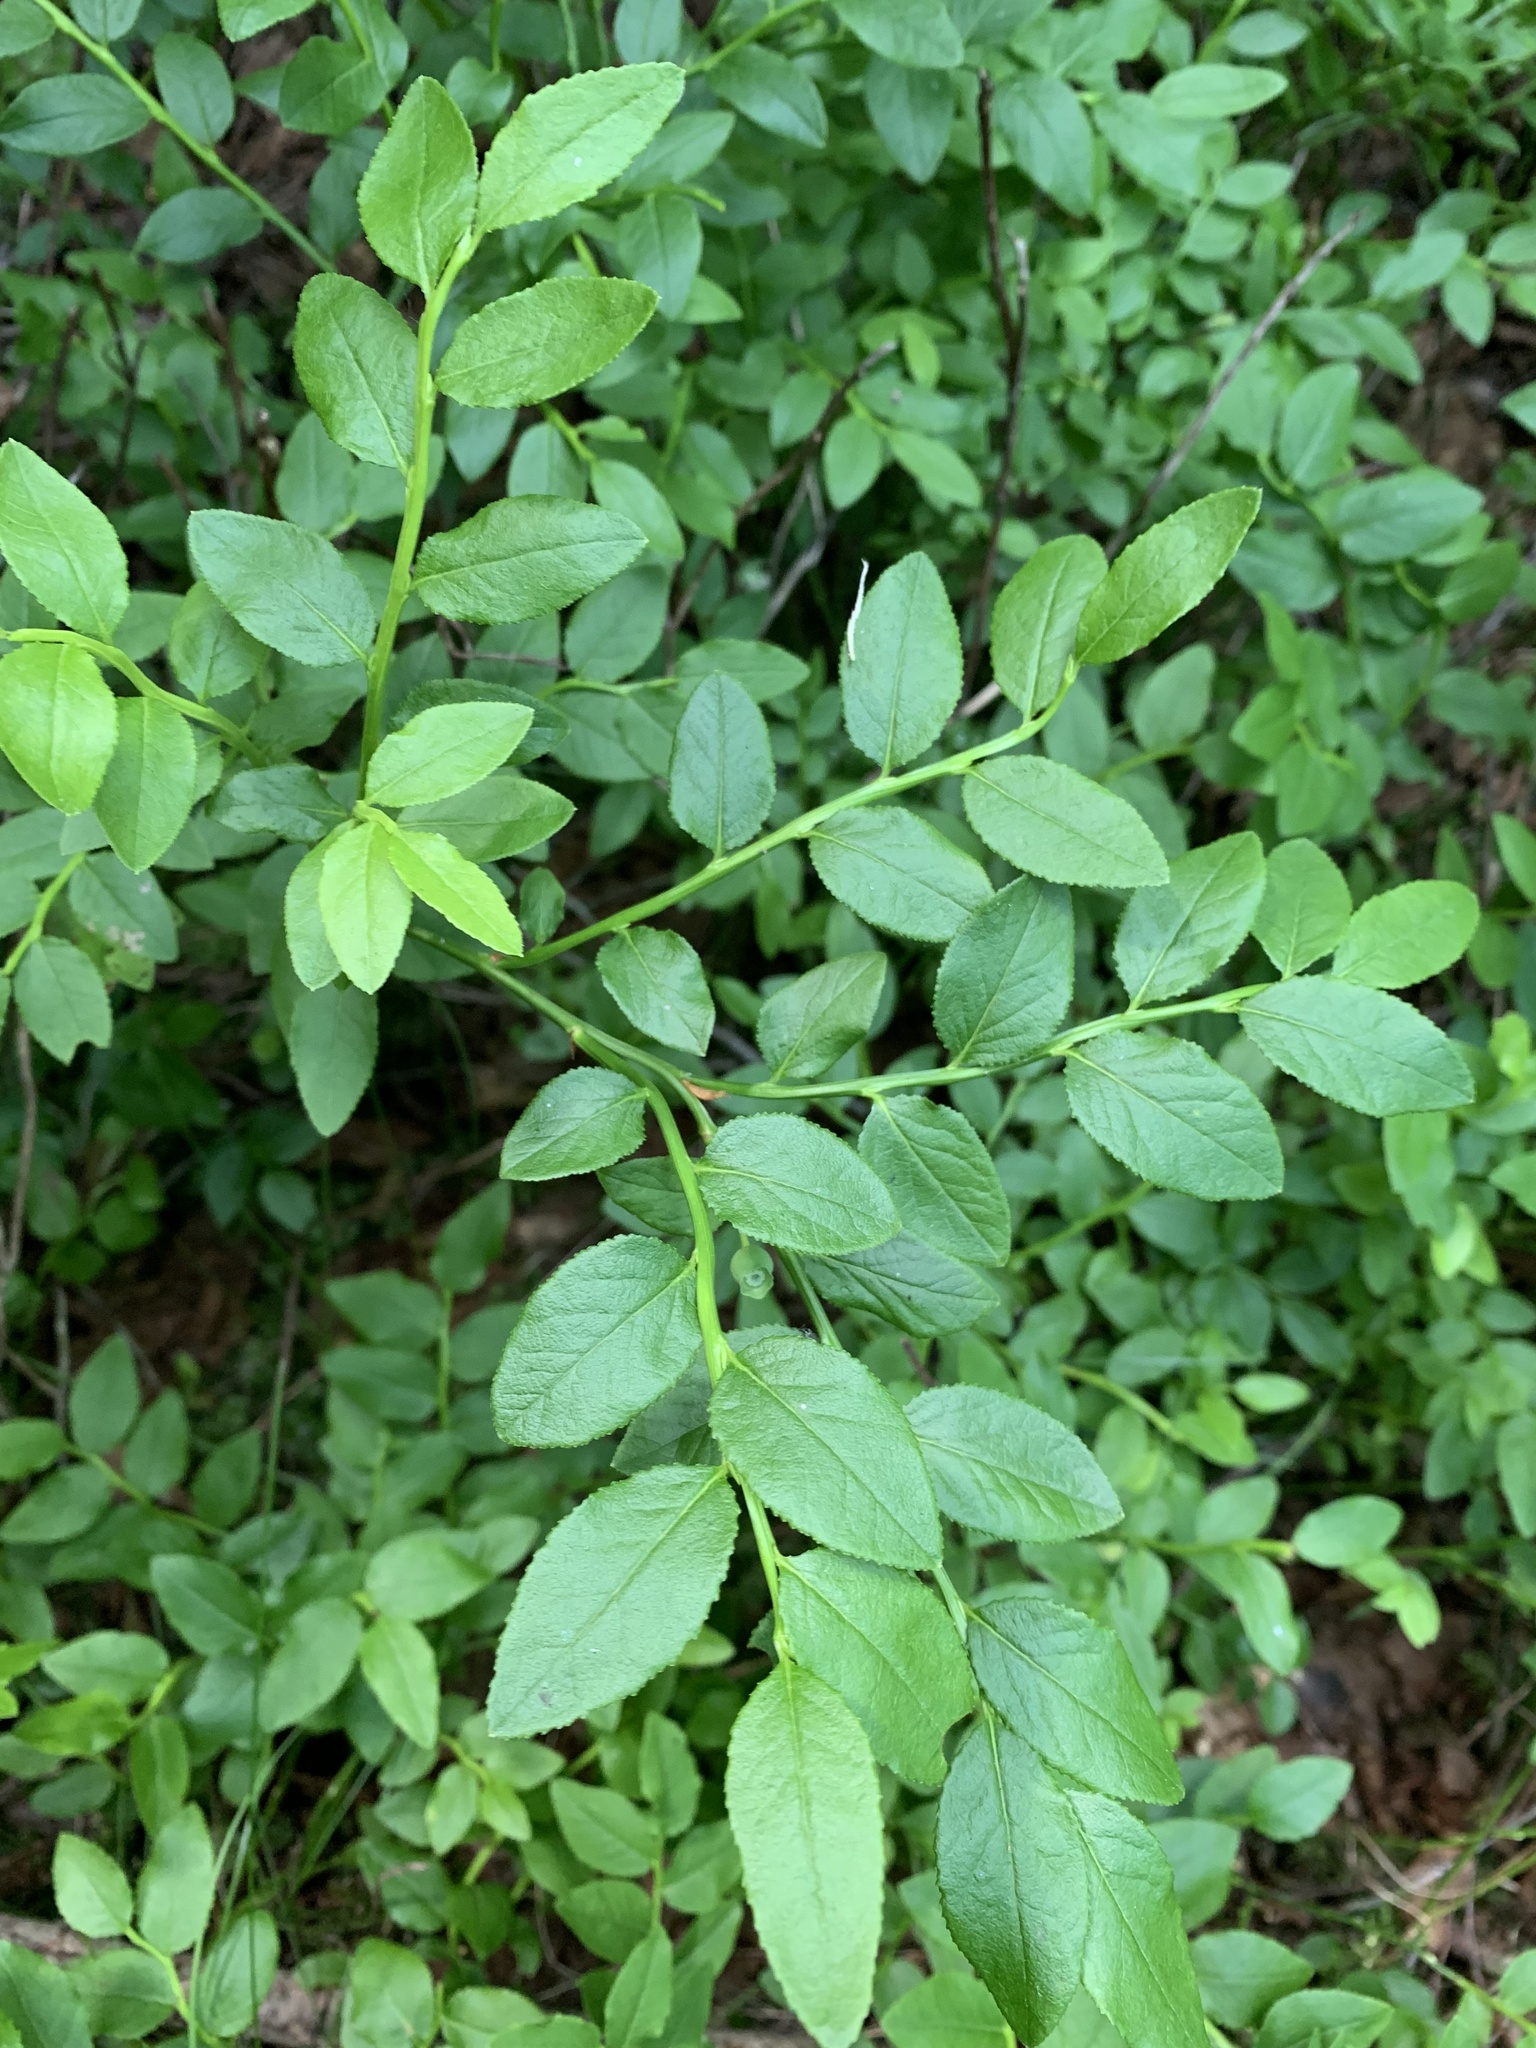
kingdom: Plantae
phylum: Tracheophyta
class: Magnoliopsida
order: Ericales
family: Ericaceae
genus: Vaccinium
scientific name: Vaccinium myrtillus
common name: Bilberry
